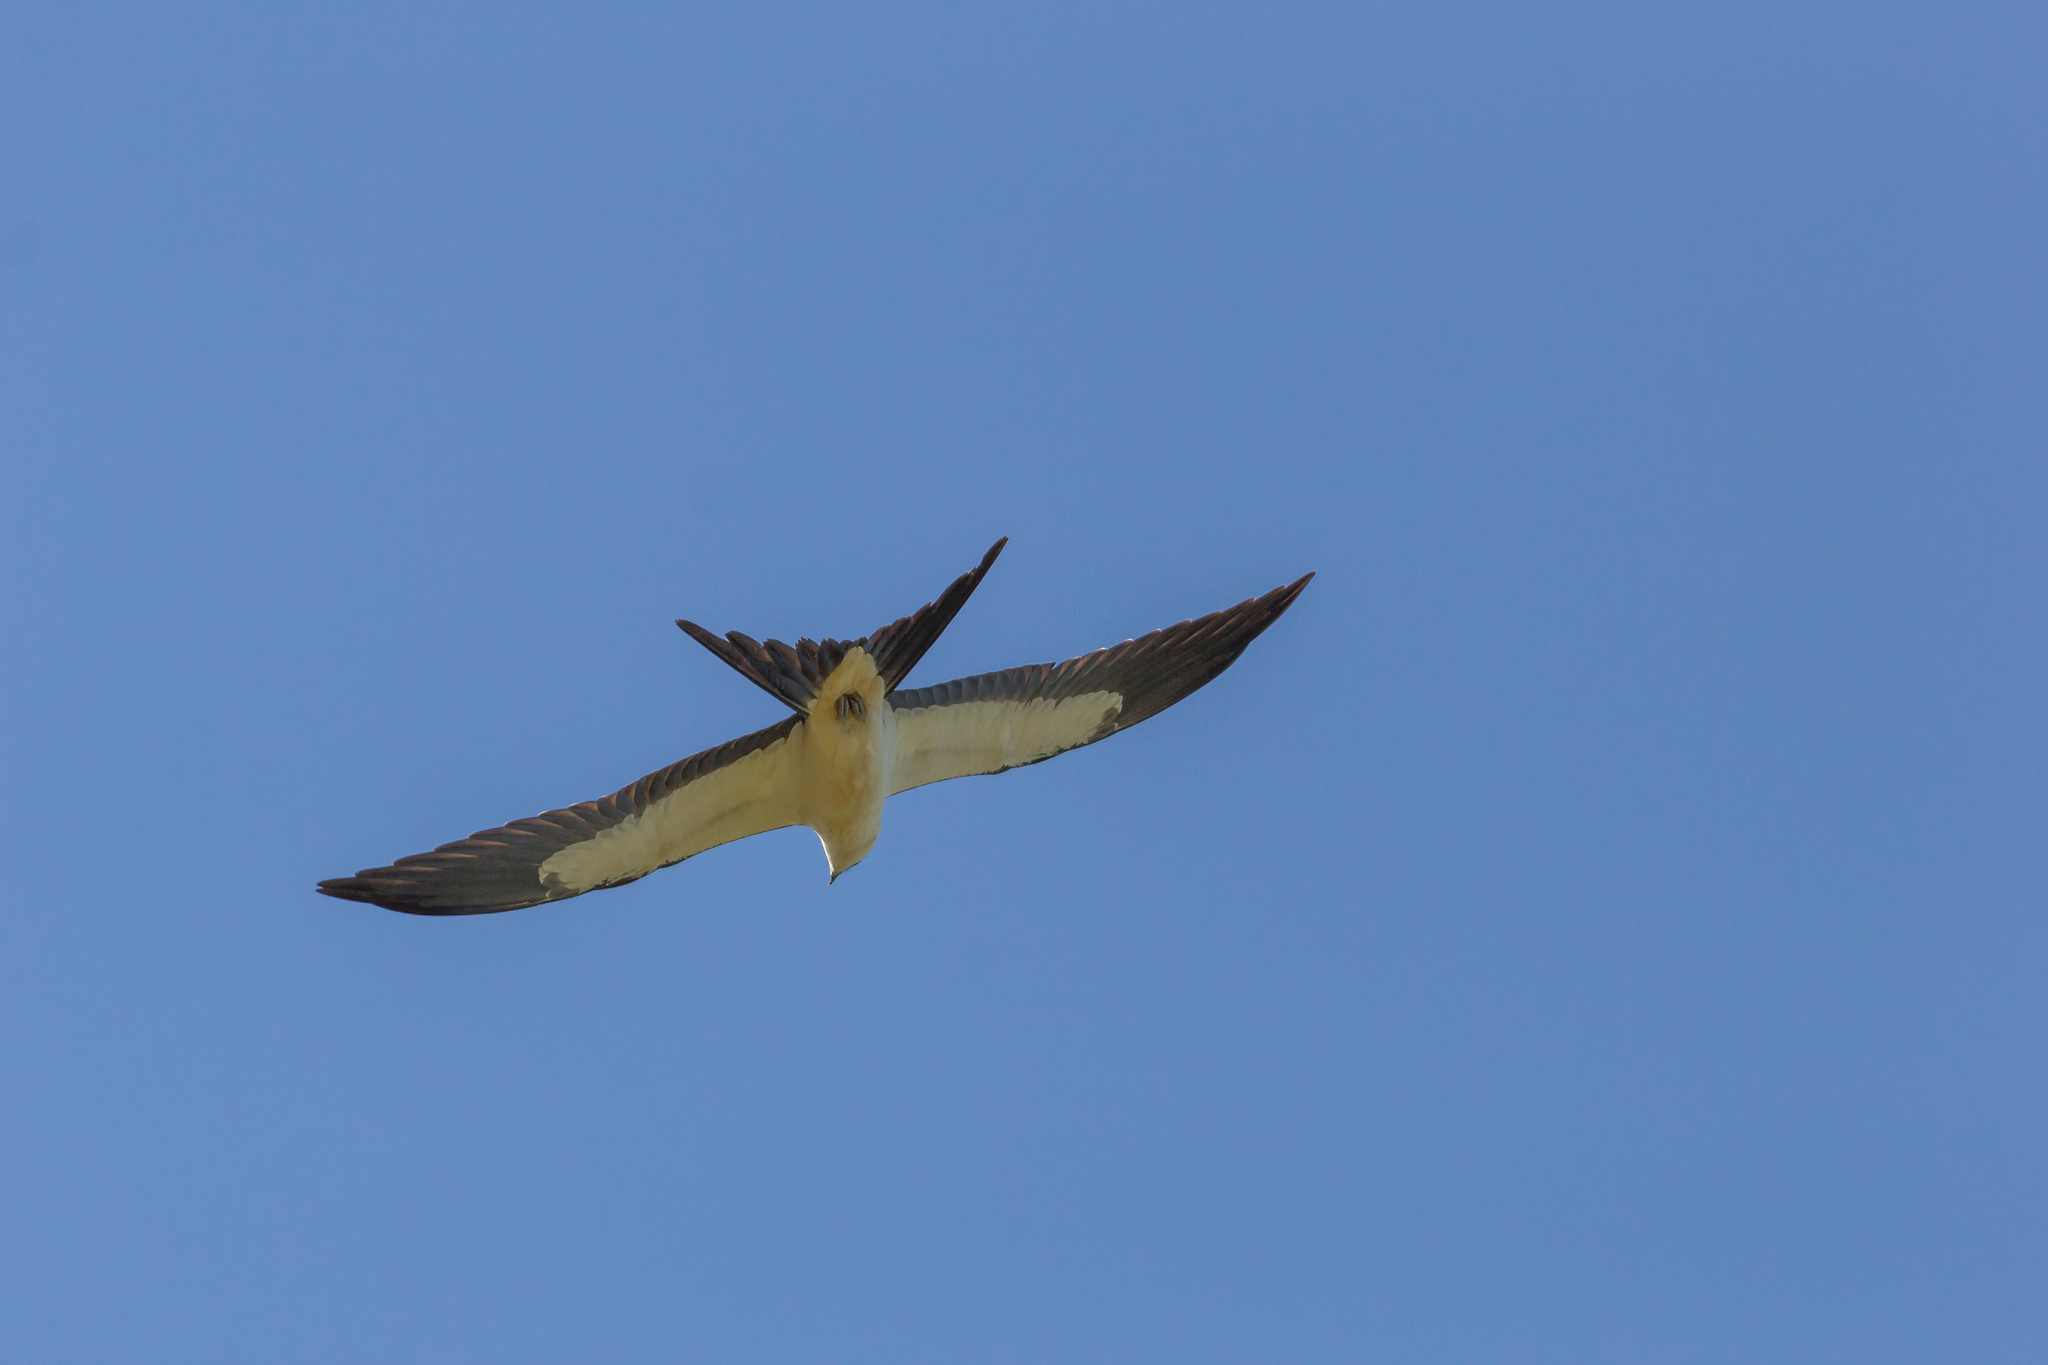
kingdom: Animalia
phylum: Chordata
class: Aves
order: Accipitriformes
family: Accipitridae
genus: Elanoides
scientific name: Elanoides forficatus
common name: Swallow-tailed kite
